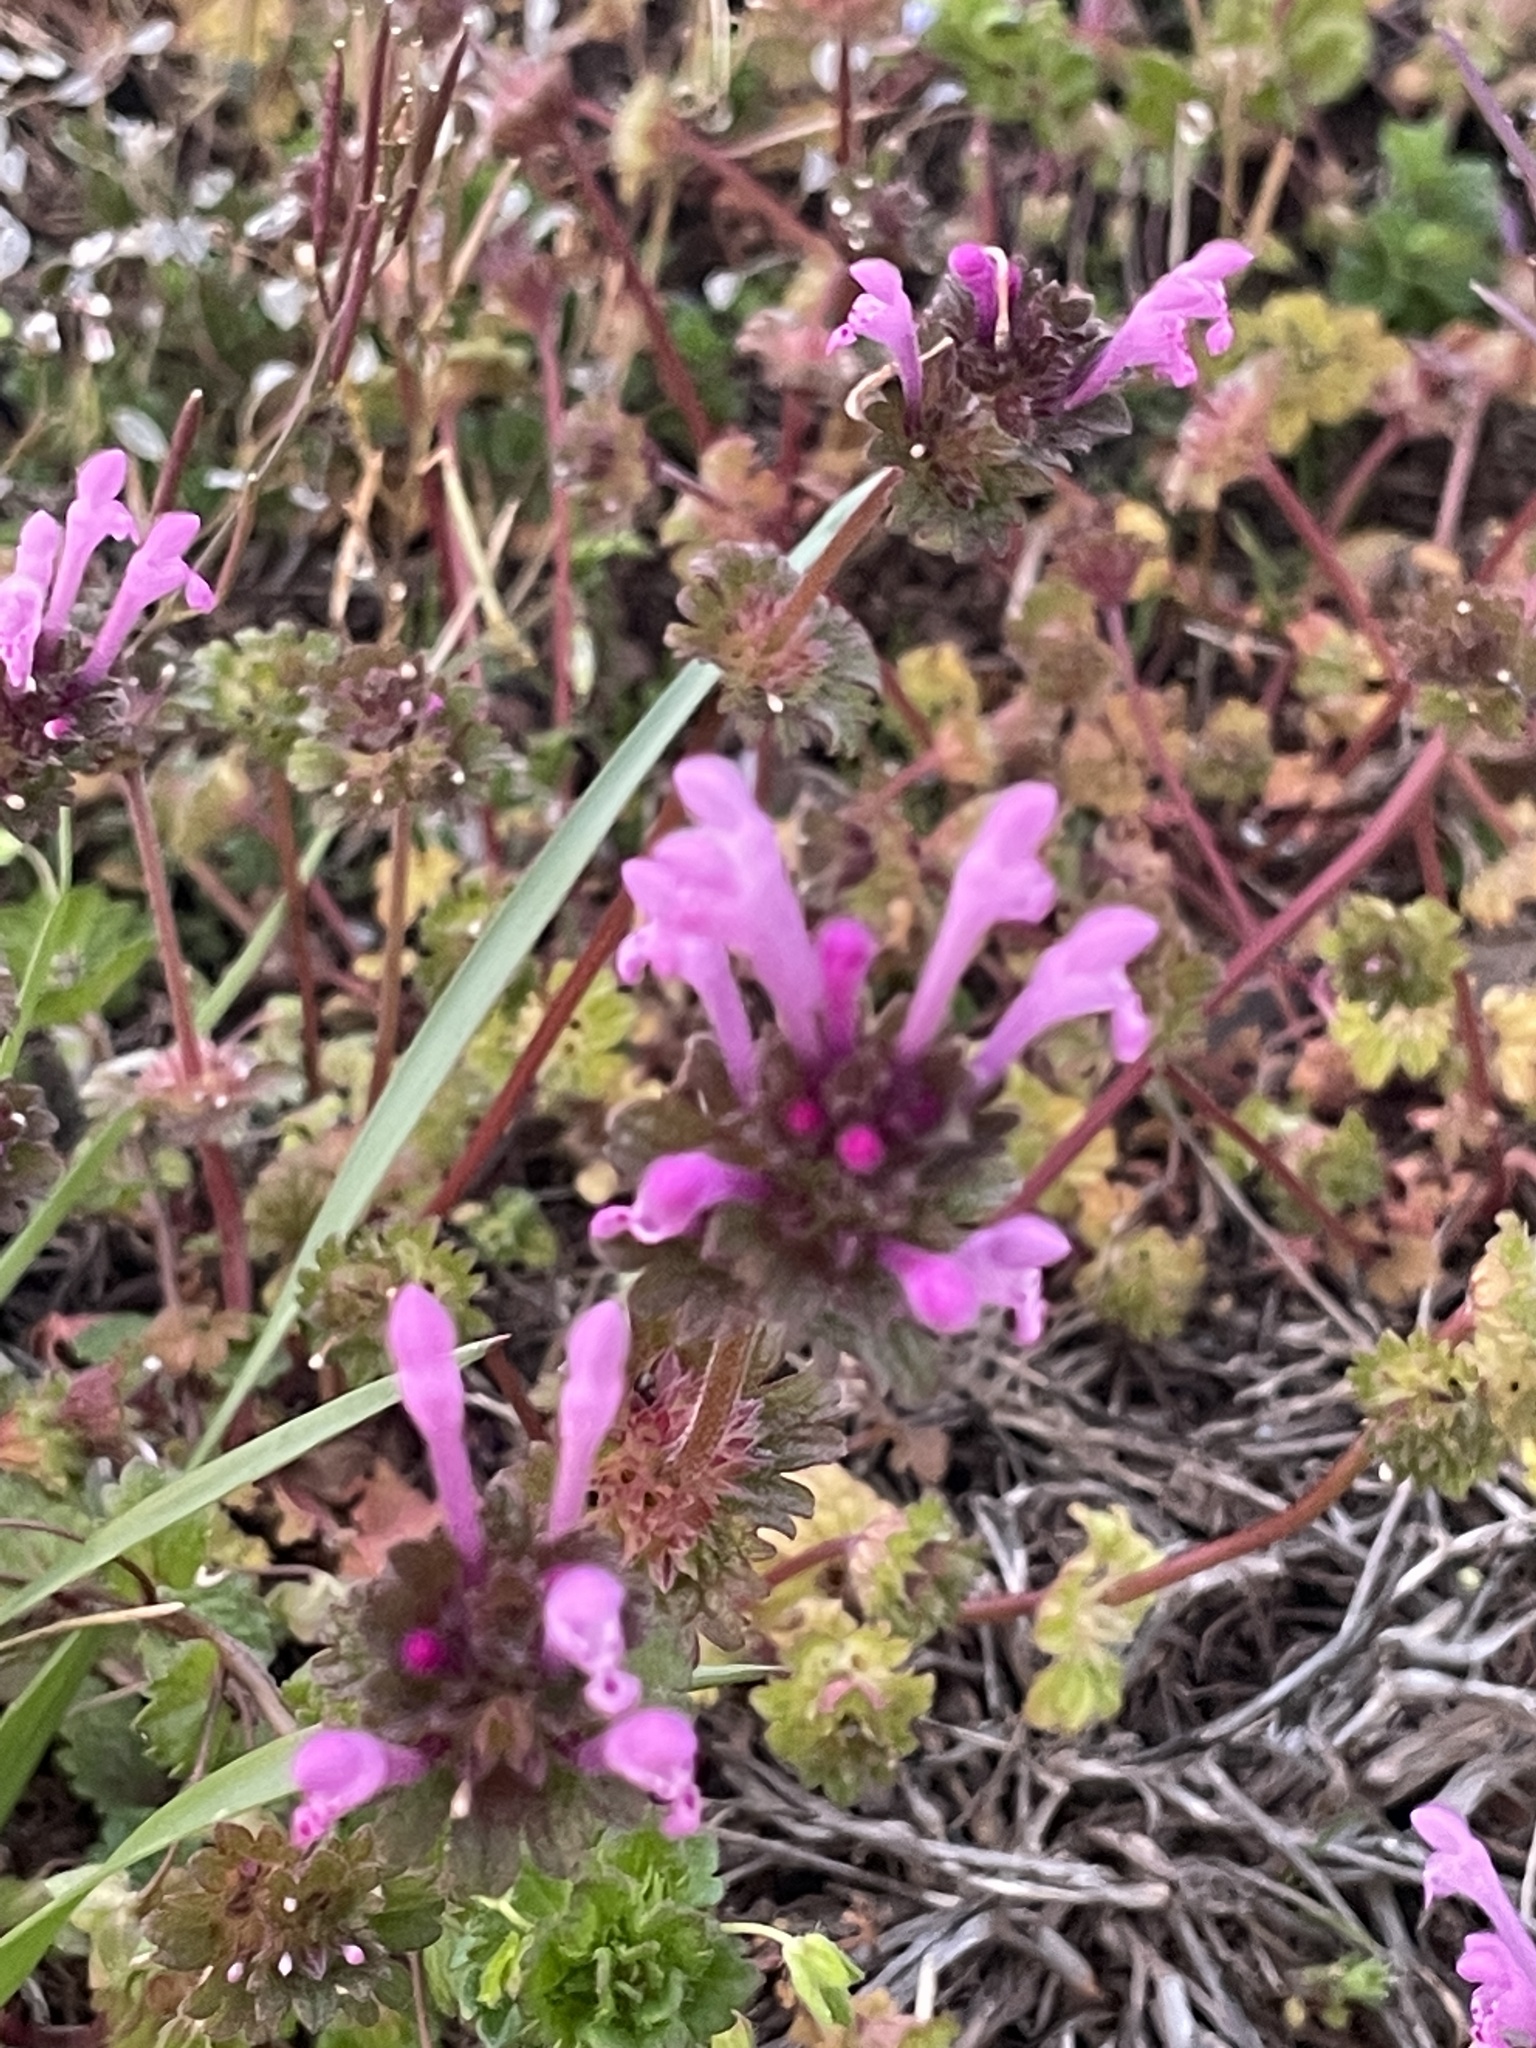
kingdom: Plantae
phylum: Tracheophyta
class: Magnoliopsida
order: Lamiales
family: Lamiaceae
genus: Lamium
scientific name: Lamium amplexicaule
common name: Henbit dead-nettle
